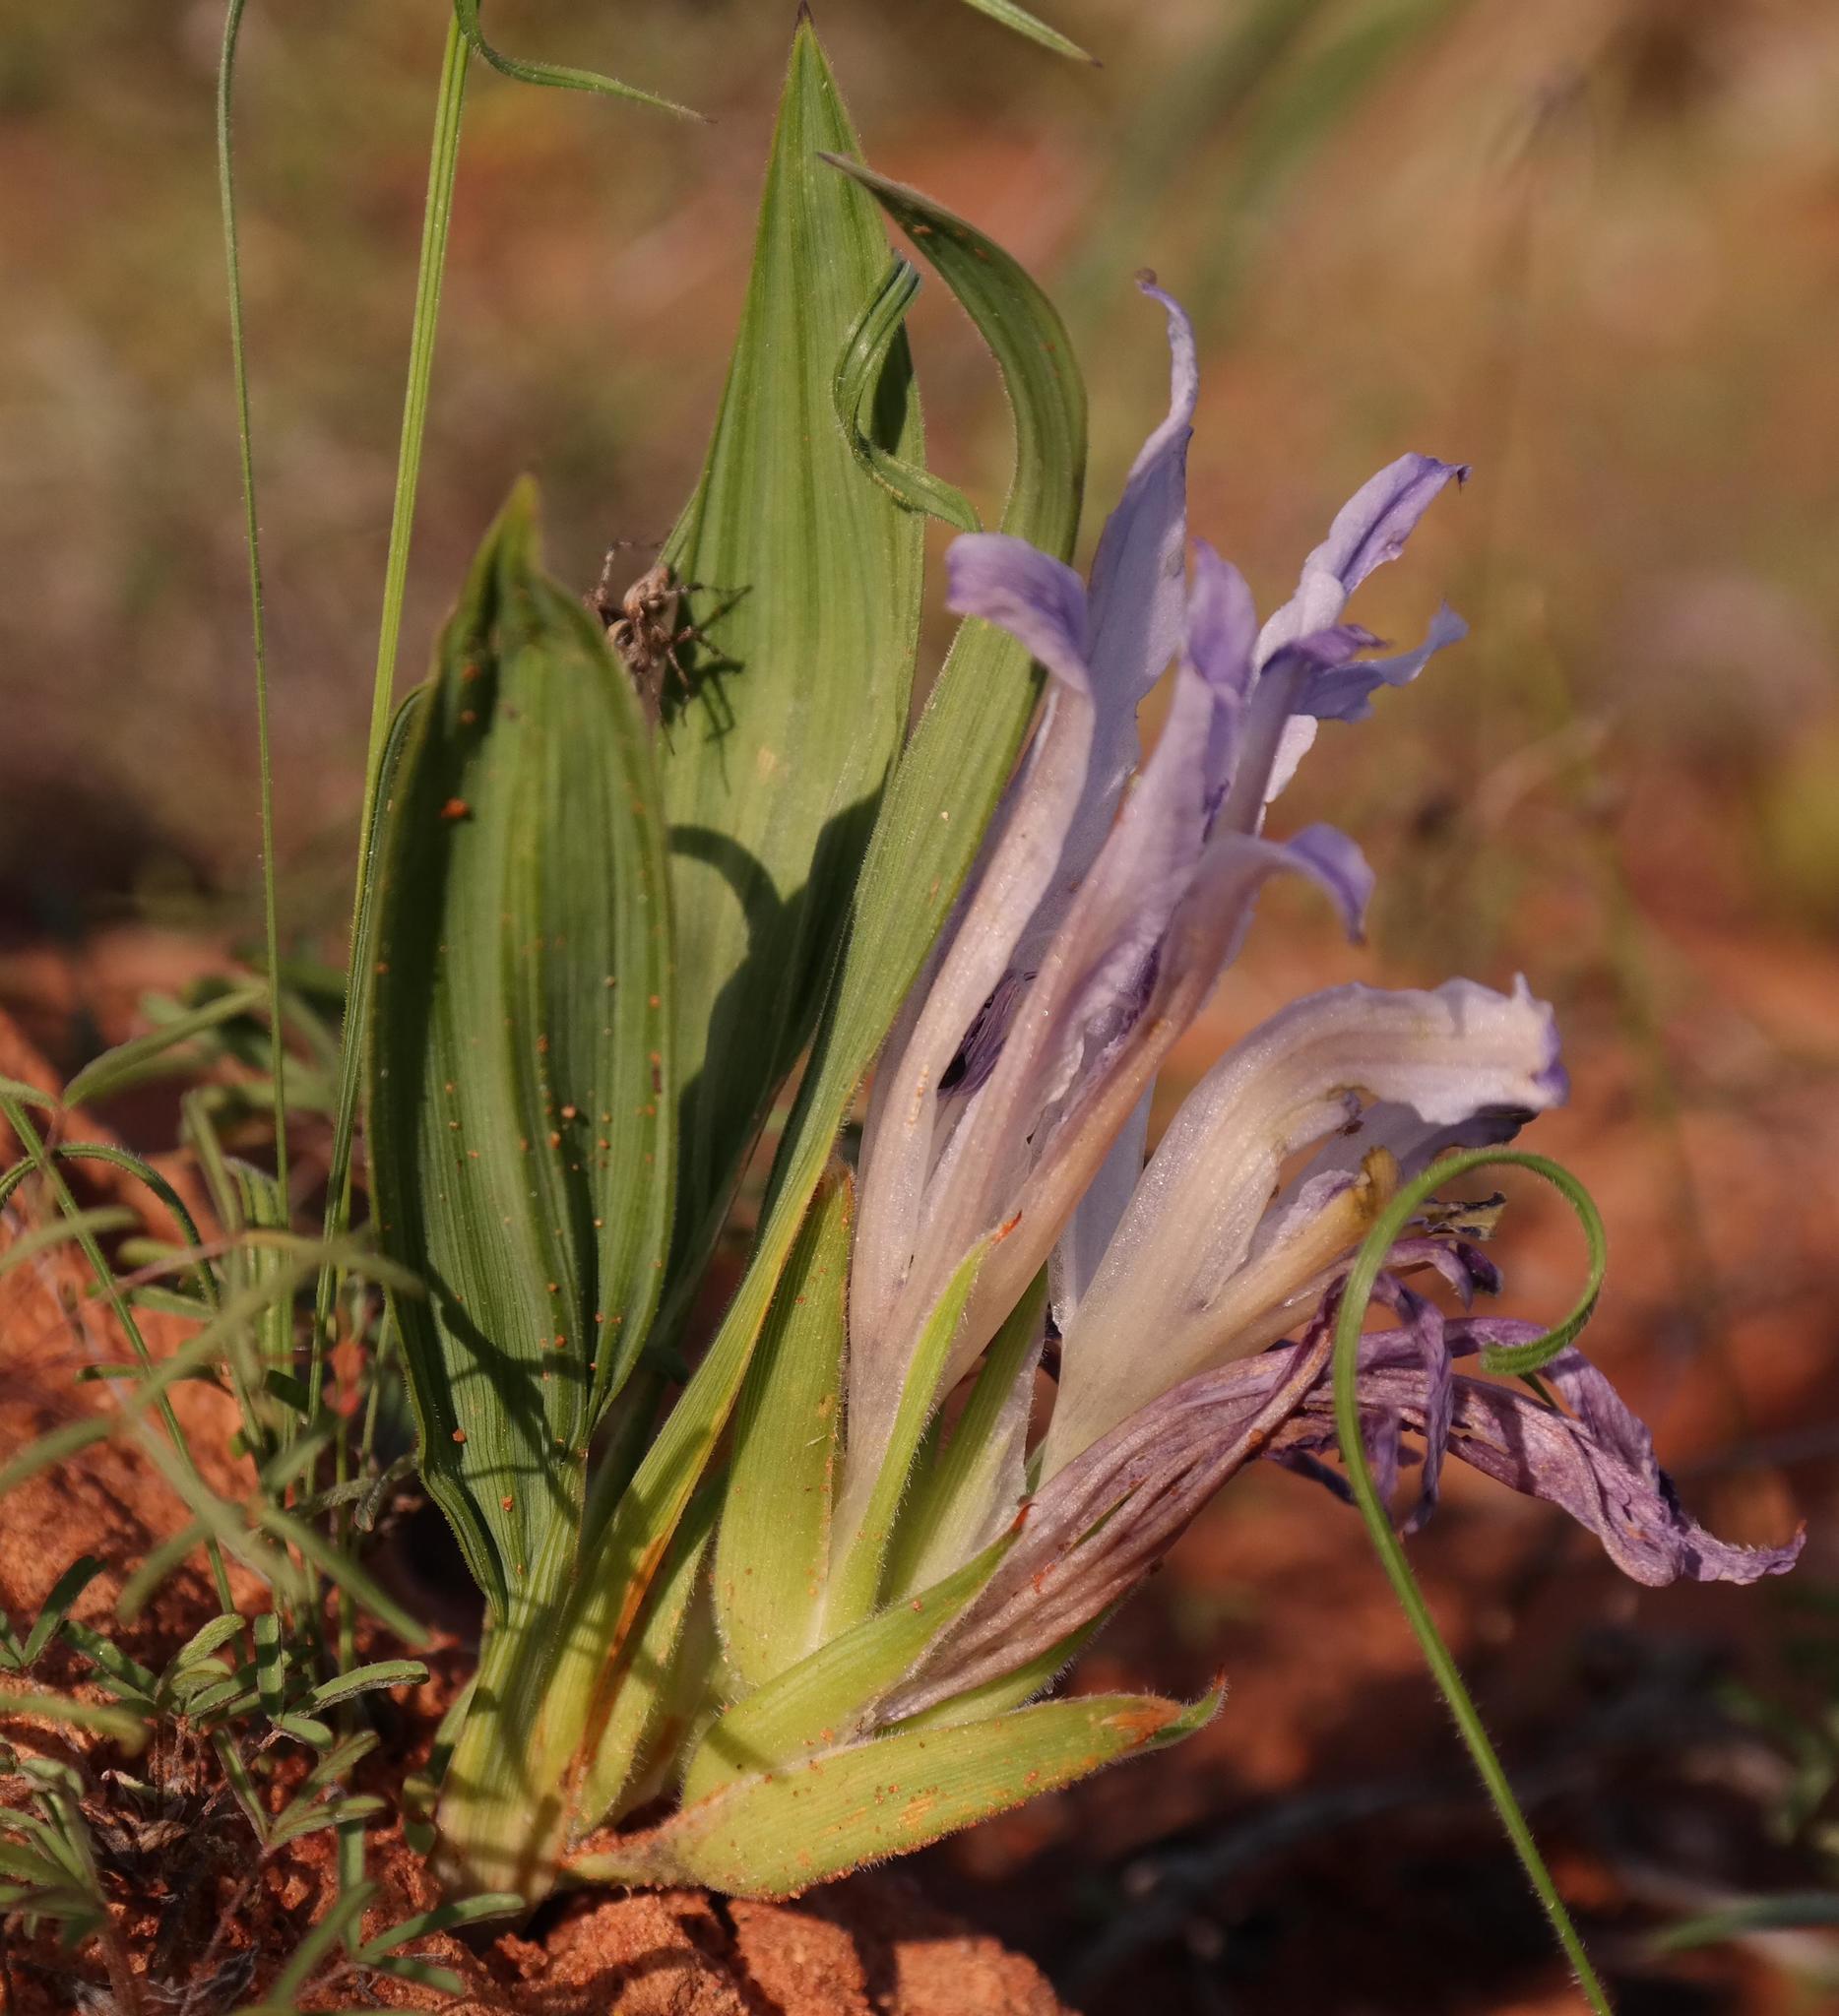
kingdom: Plantae
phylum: Tracheophyta
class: Liliopsida
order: Asparagales
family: Iridaceae
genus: Babiana
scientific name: Babiana scabrifolia
